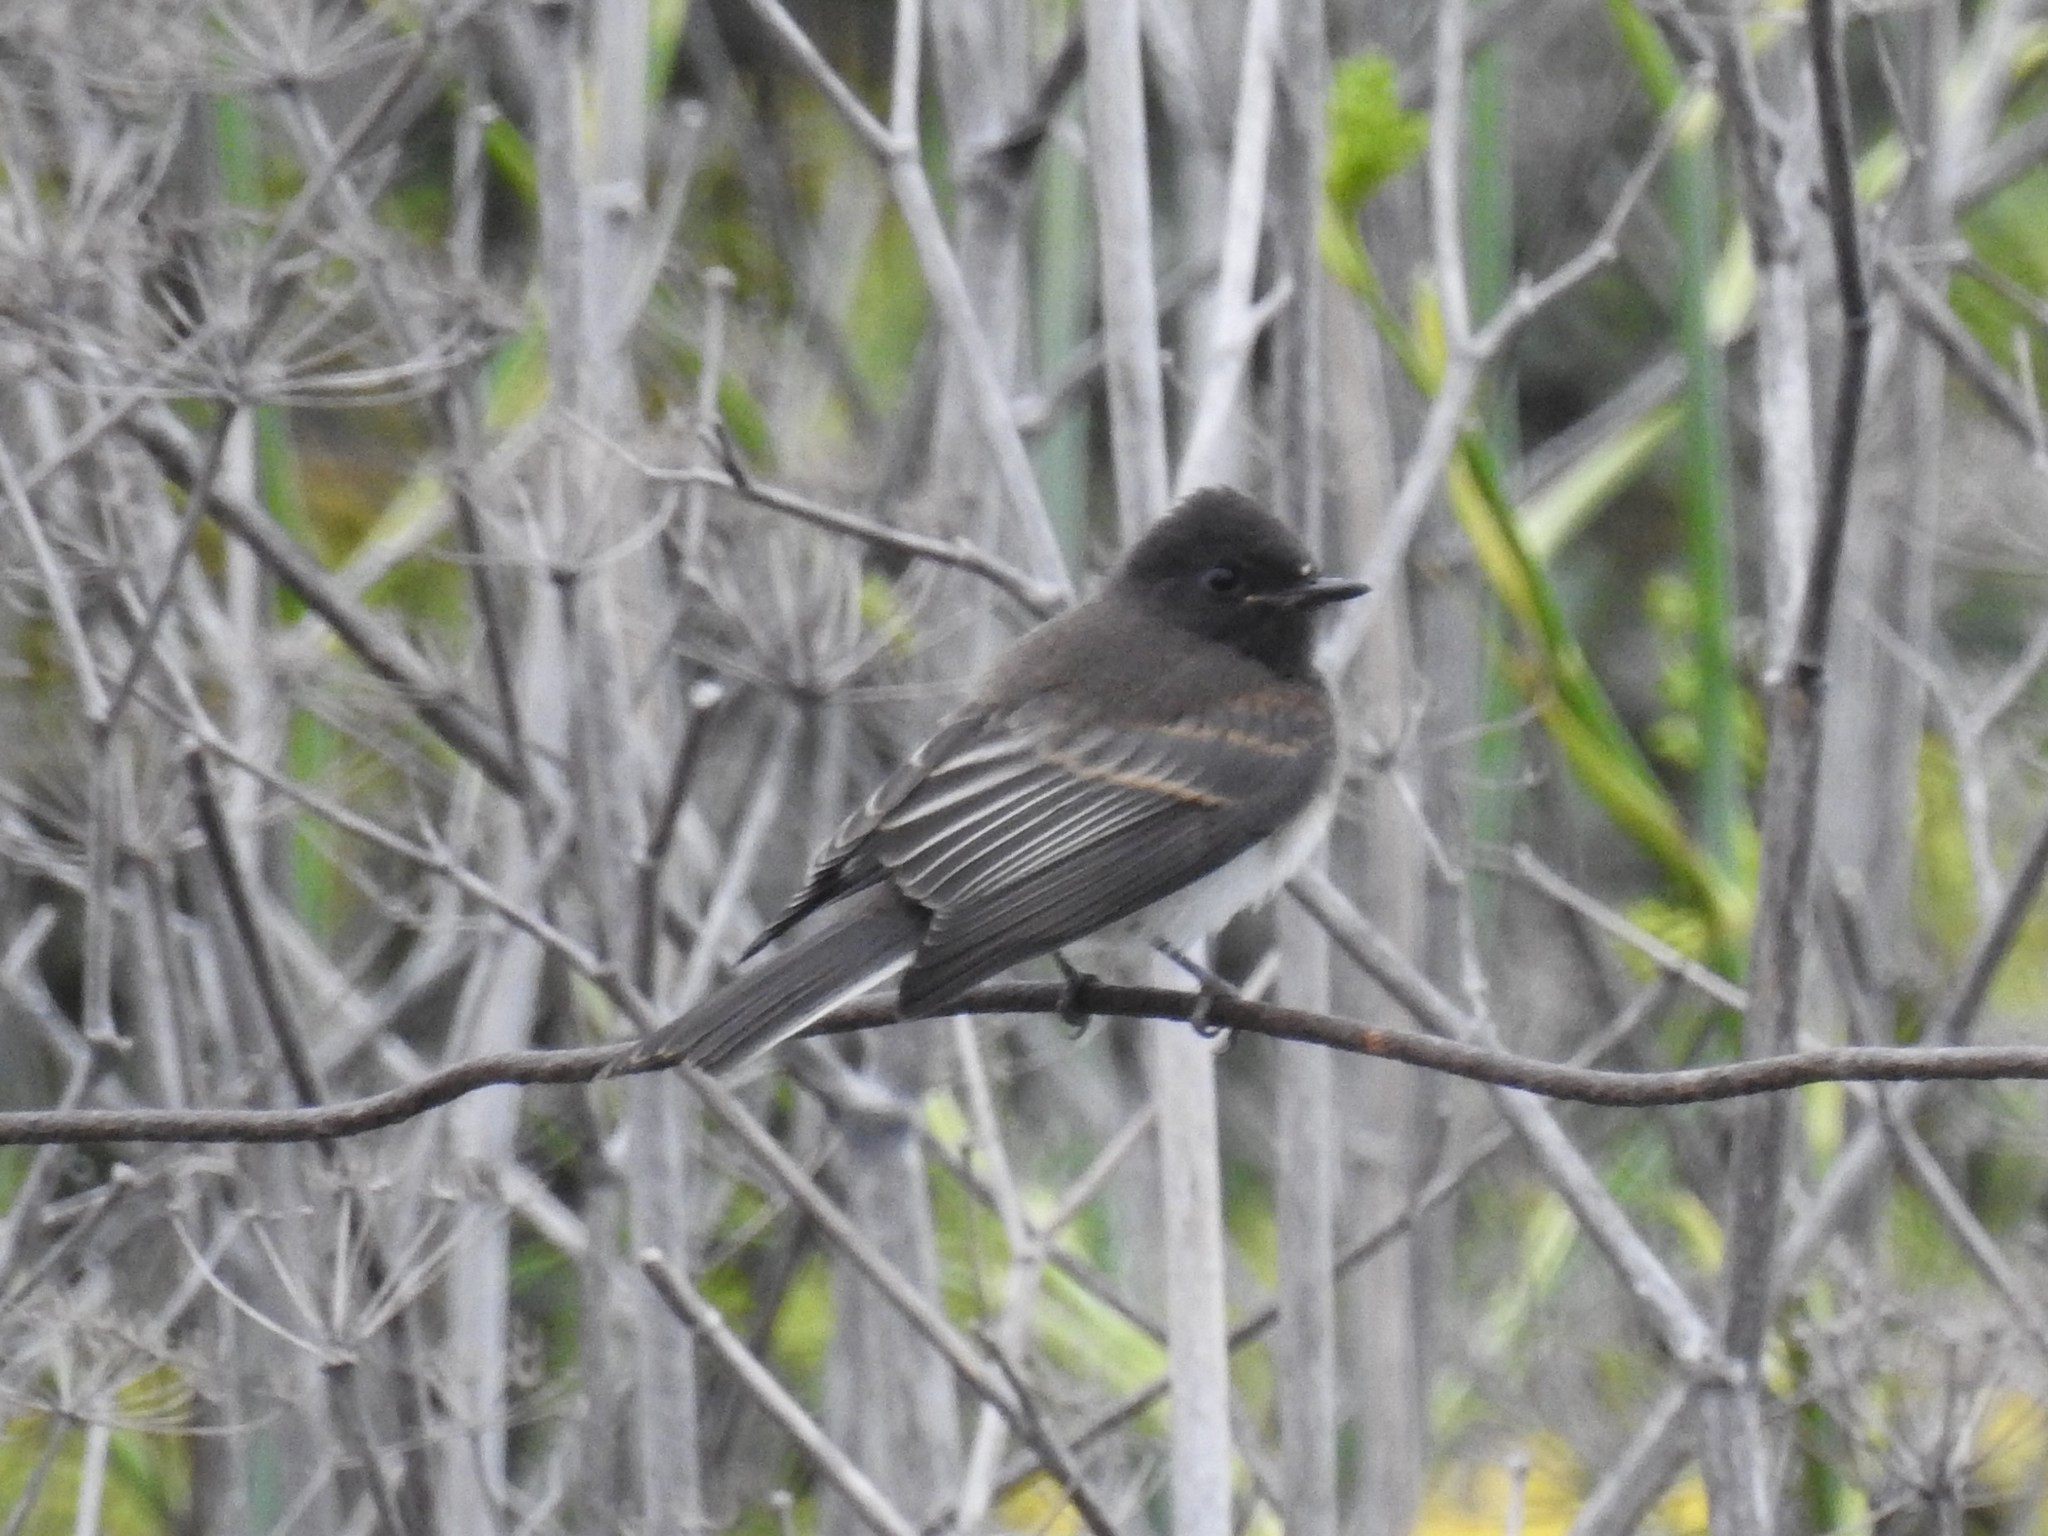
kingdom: Animalia
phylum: Chordata
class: Aves
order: Passeriformes
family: Tyrannidae
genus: Sayornis
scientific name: Sayornis nigricans
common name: Black phoebe
